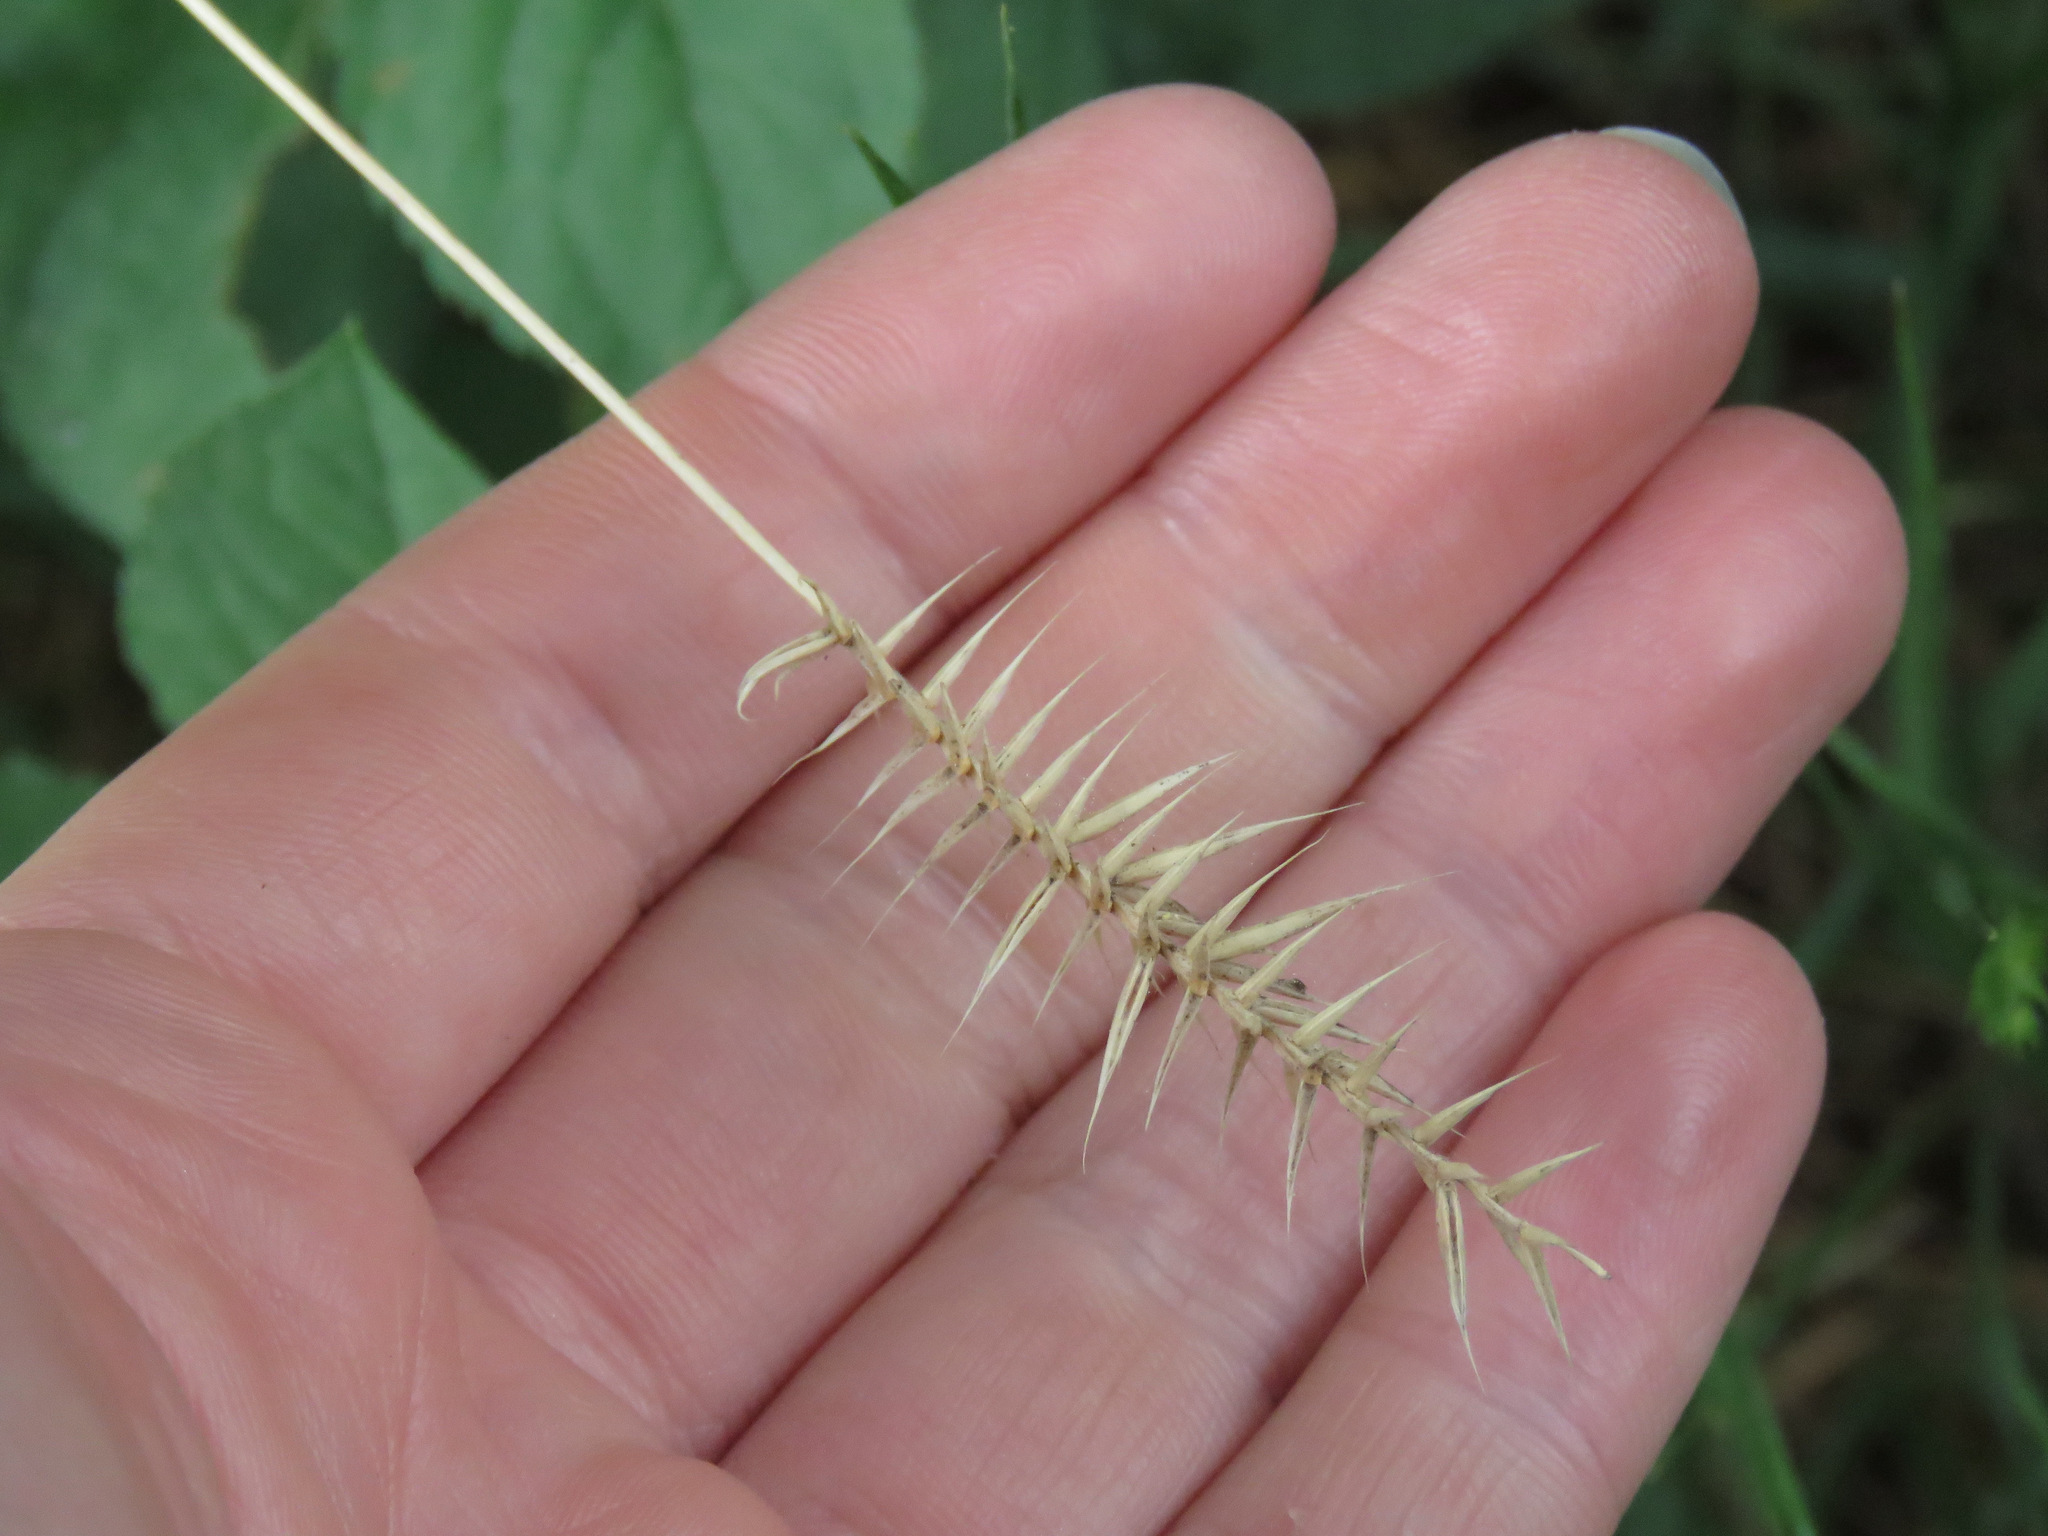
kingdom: Plantae
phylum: Tracheophyta
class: Liliopsida
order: Poales
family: Poaceae
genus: Agropyron
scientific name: Agropyron cristatum
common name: Crested wheatgrass
